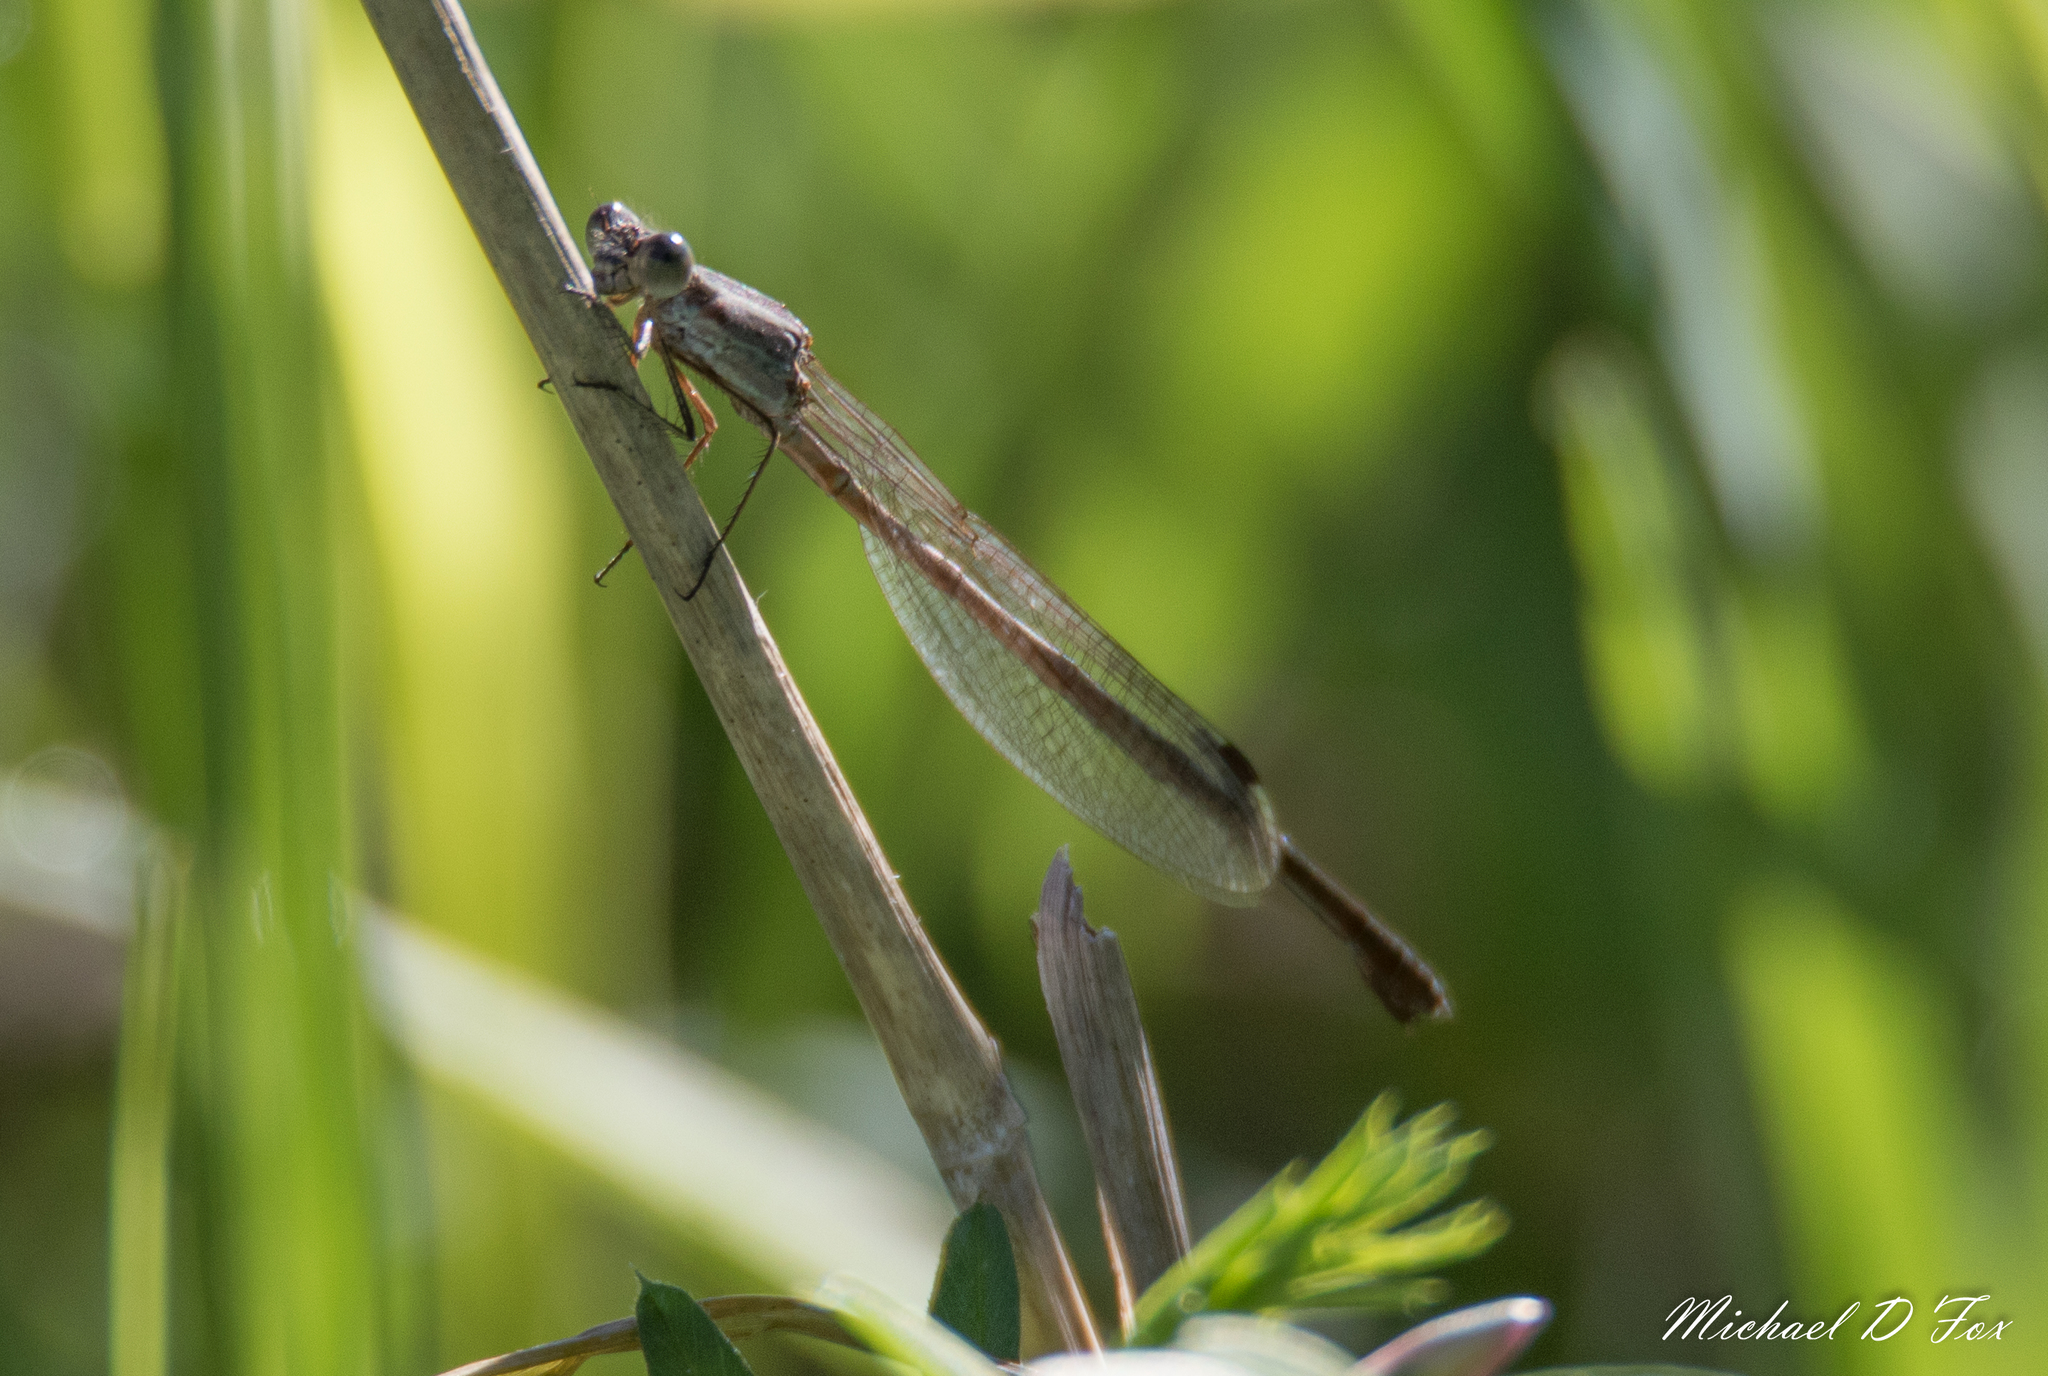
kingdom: Animalia
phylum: Arthropoda
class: Insecta
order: Odonata
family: Lestidae
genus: Lestes
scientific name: Lestes alacer
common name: Plateau spreadwing
